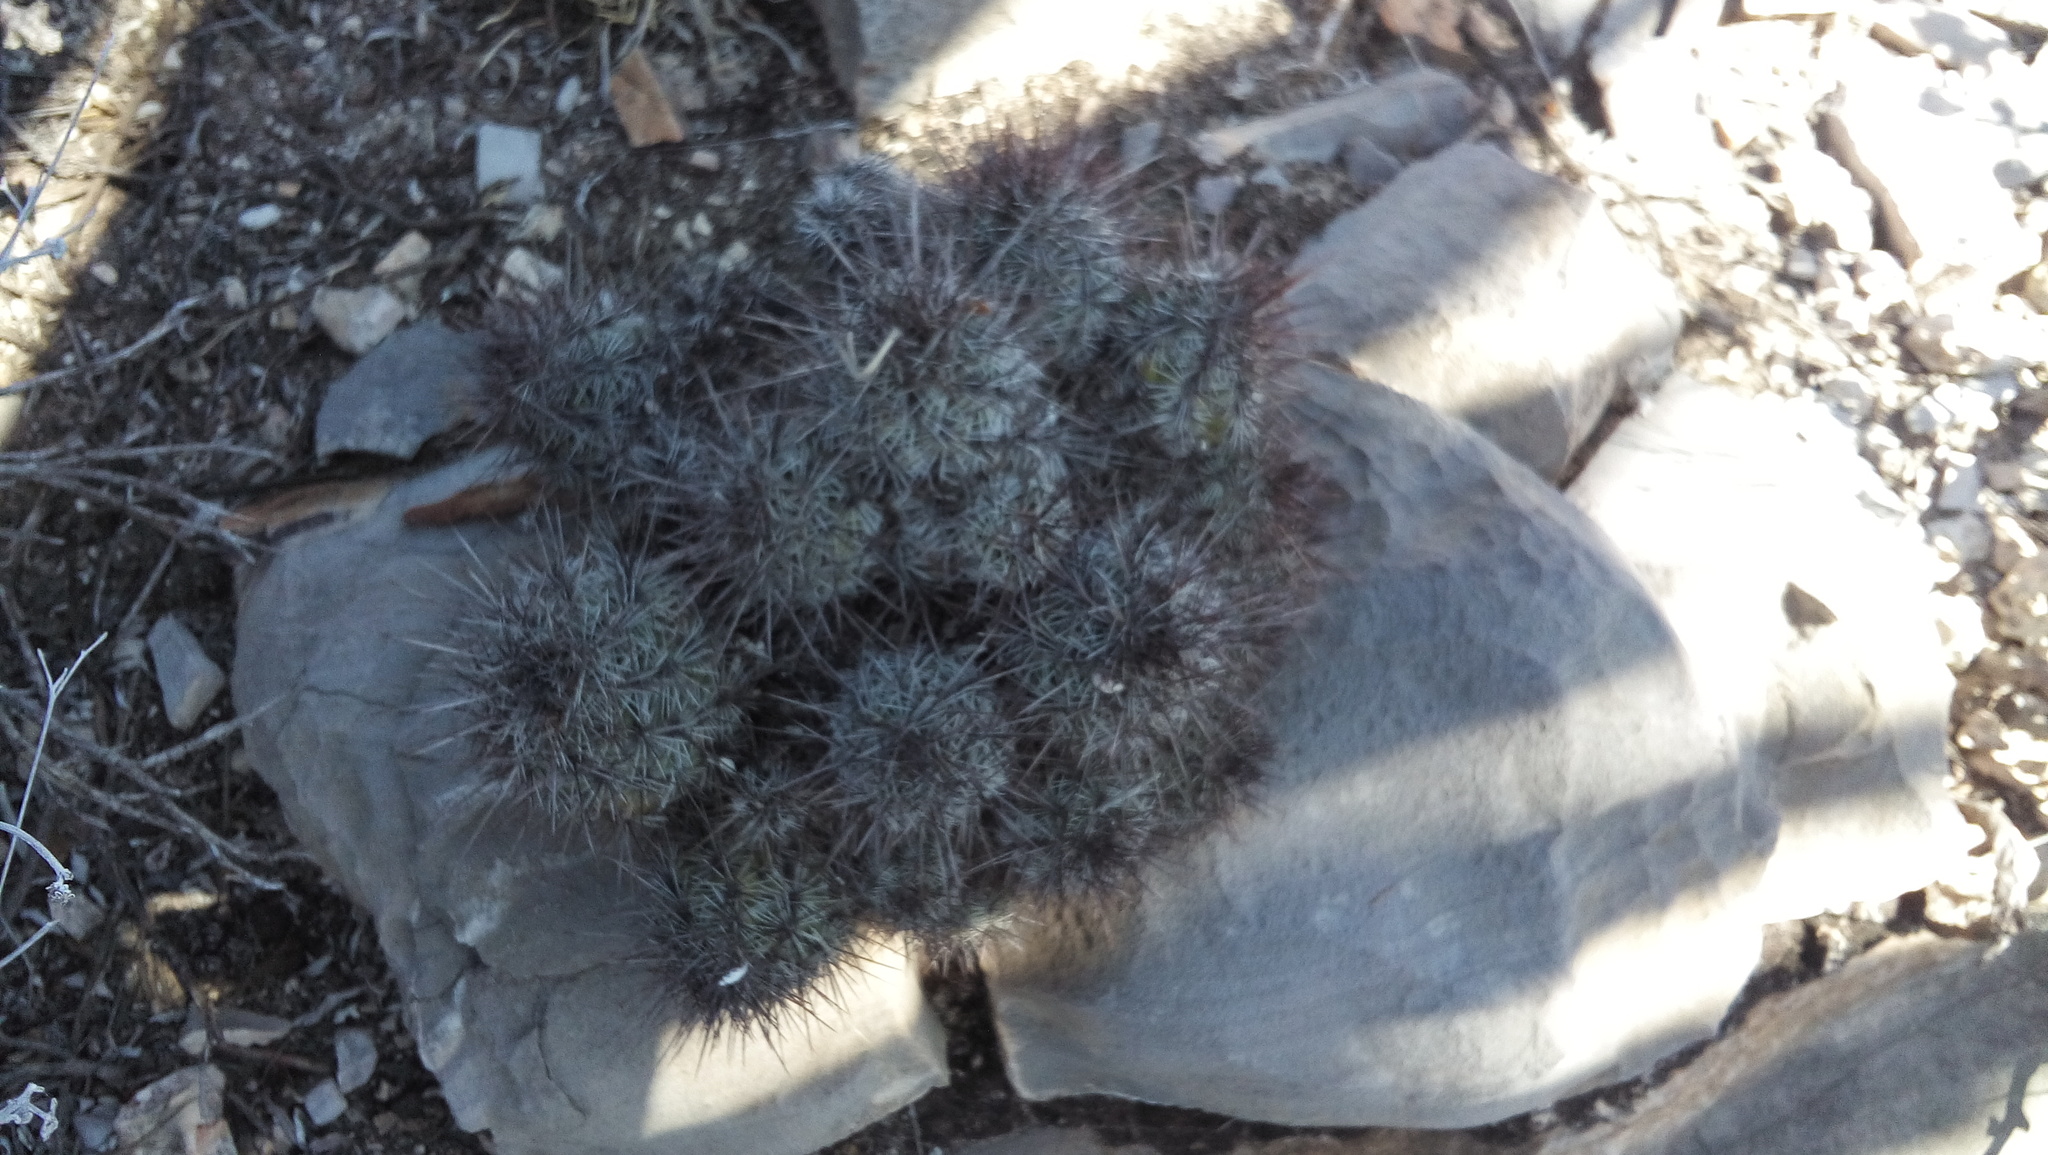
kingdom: Plantae
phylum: Tracheophyta
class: Magnoliopsida
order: Caryophyllales
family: Cactaceae
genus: Cochemiea
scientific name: Cochemiea conoidea
